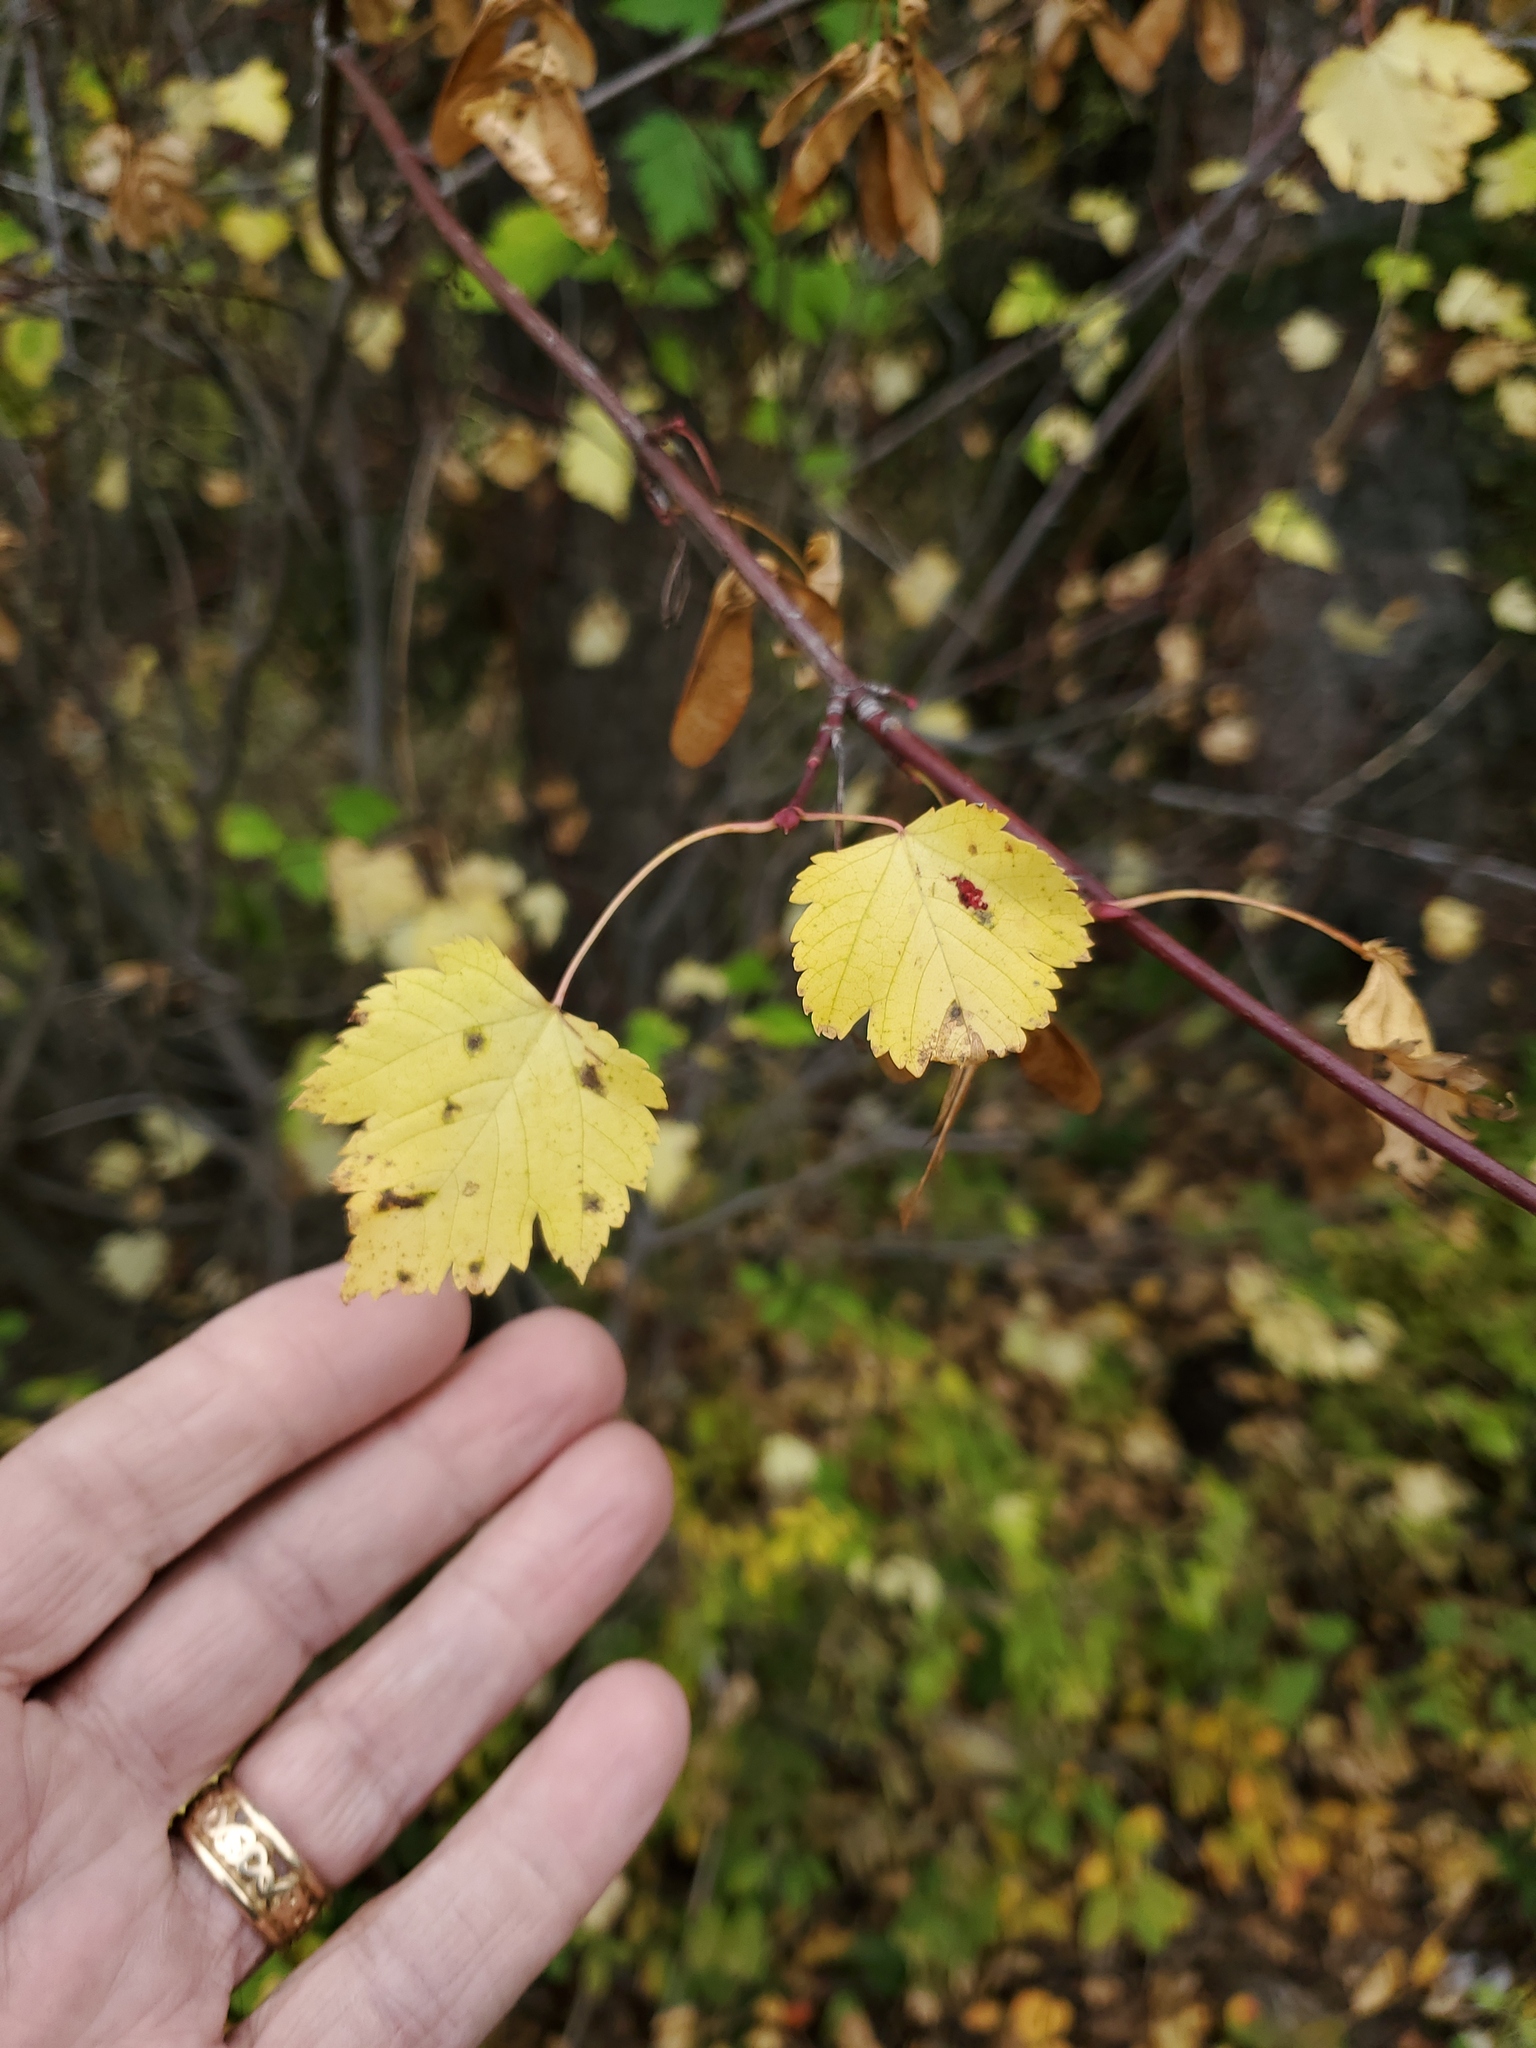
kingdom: Plantae
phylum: Tracheophyta
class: Magnoliopsida
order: Sapindales
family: Sapindaceae
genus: Acer
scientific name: Acer glabrum
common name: Rocky mountain maple
